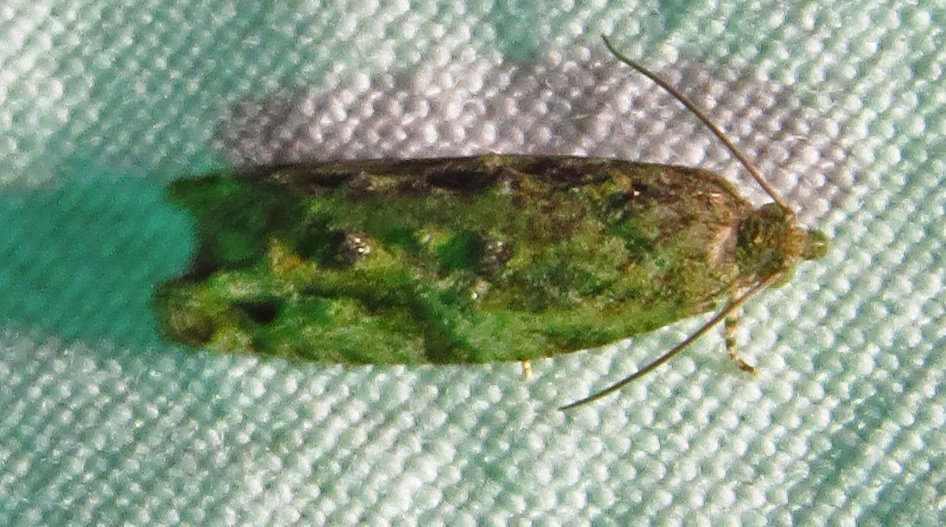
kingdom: Animalia
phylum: Arthropoda
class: Insecta
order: Lepidoptera
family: Tortricidae
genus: Proteoteras
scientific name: Proteoteras aesculana
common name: Maple twig borer moth
